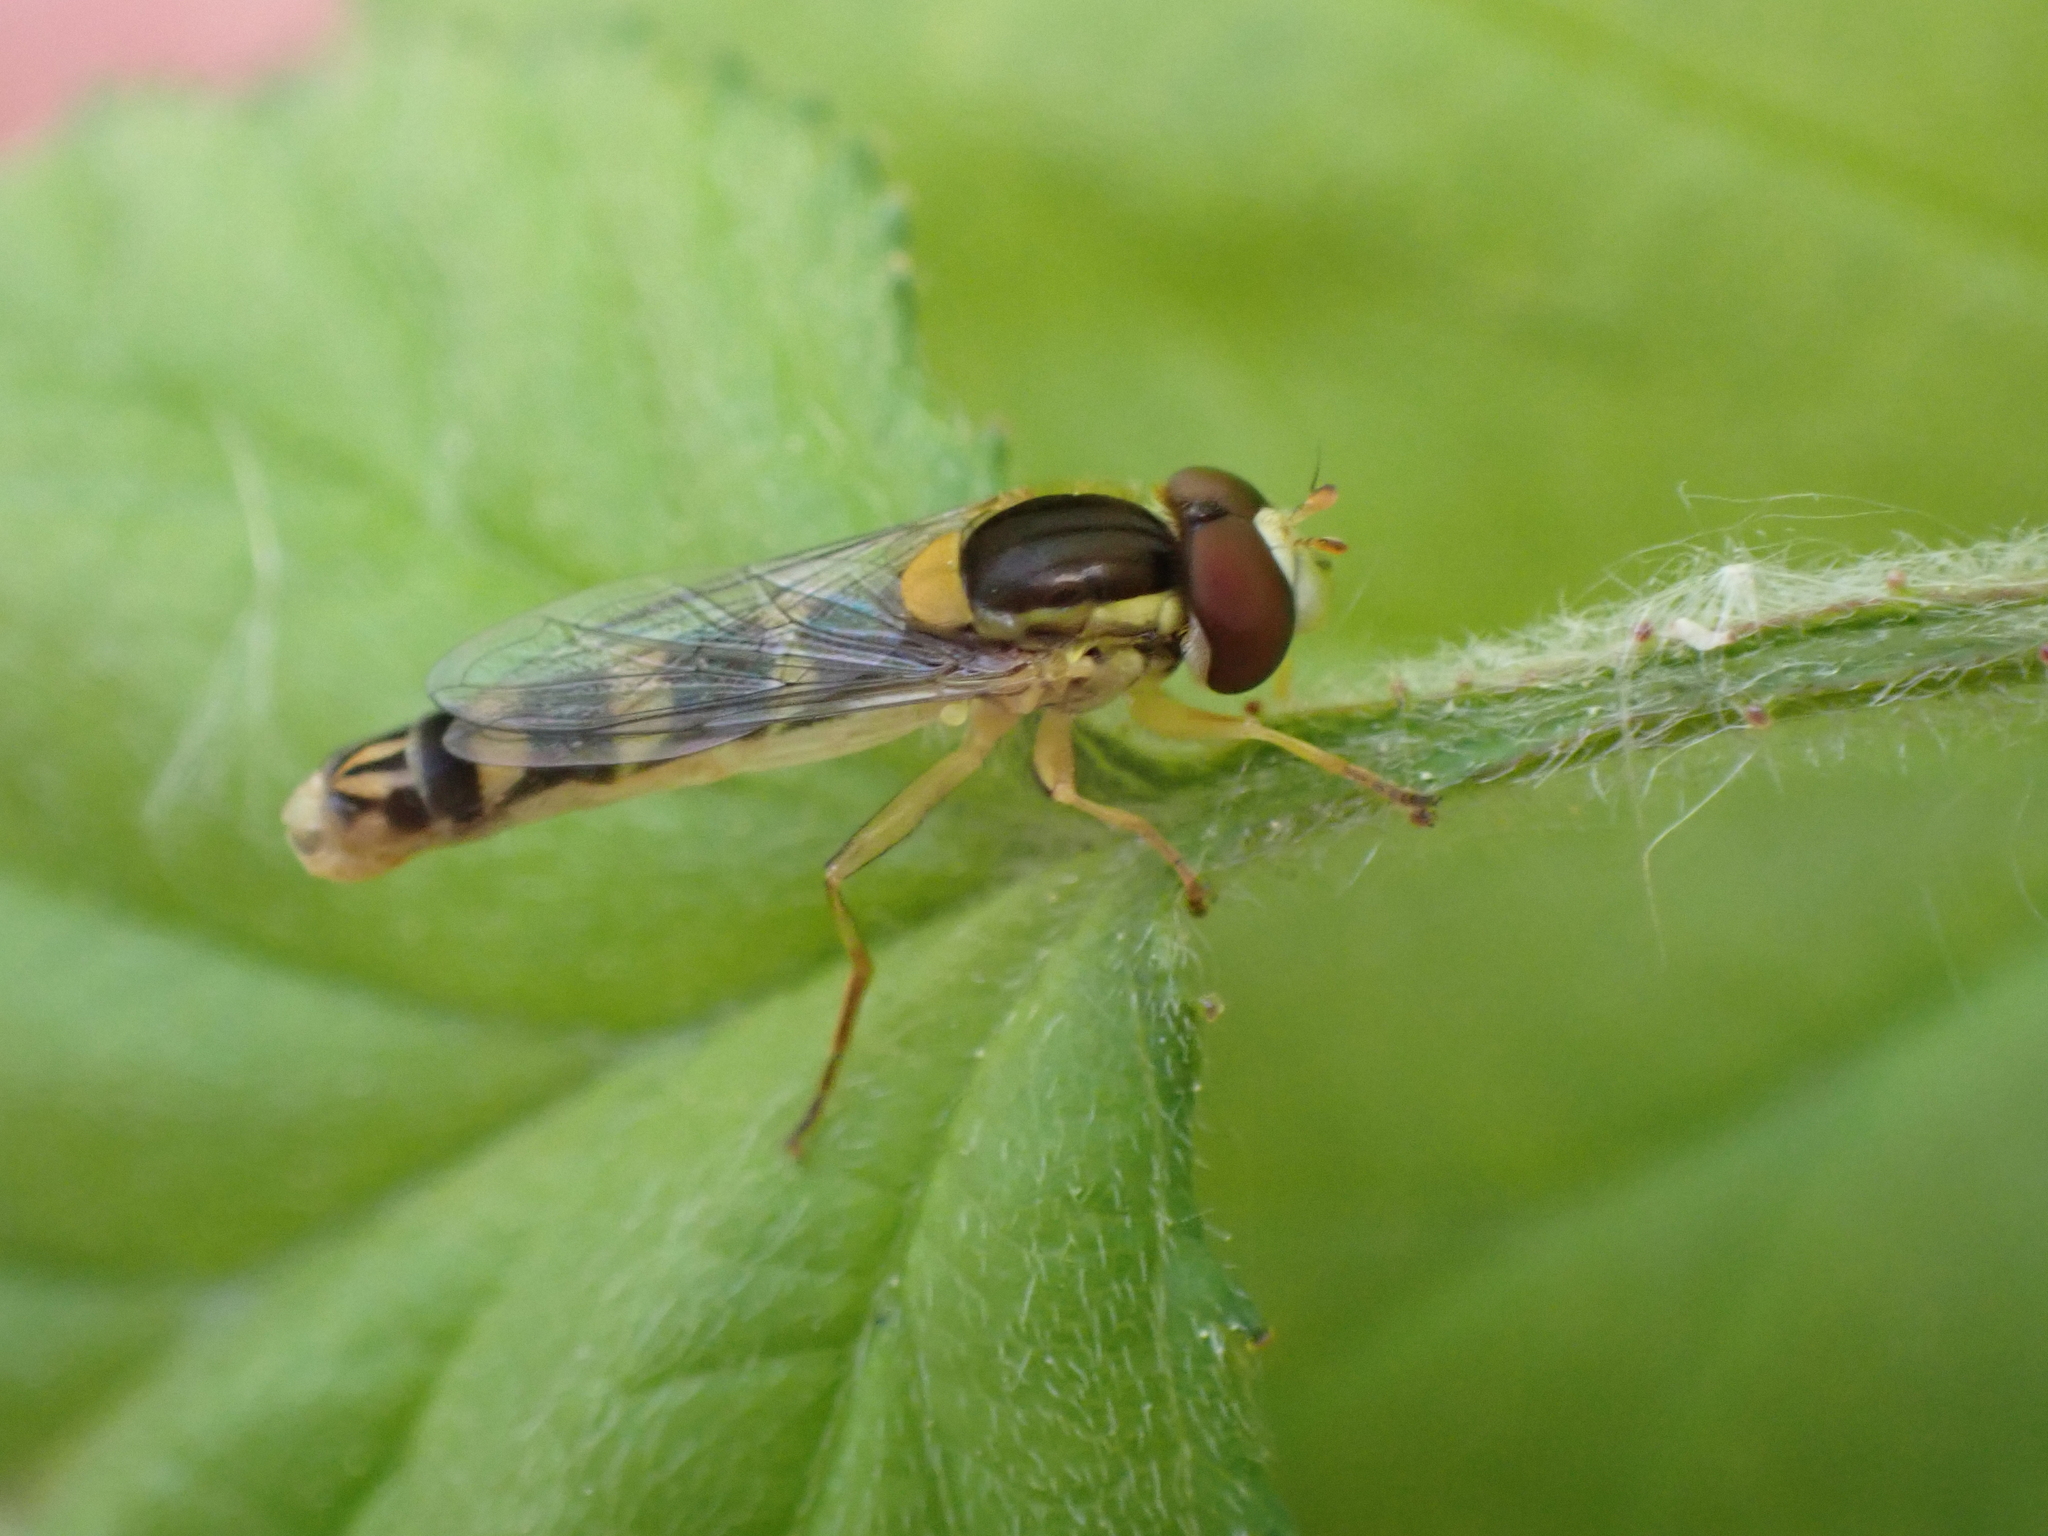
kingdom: Animalia
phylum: Arthropoda
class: Insecta
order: Diptera
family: Syrphidae
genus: Sphaerophoria
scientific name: Sphaerophoria scripta
